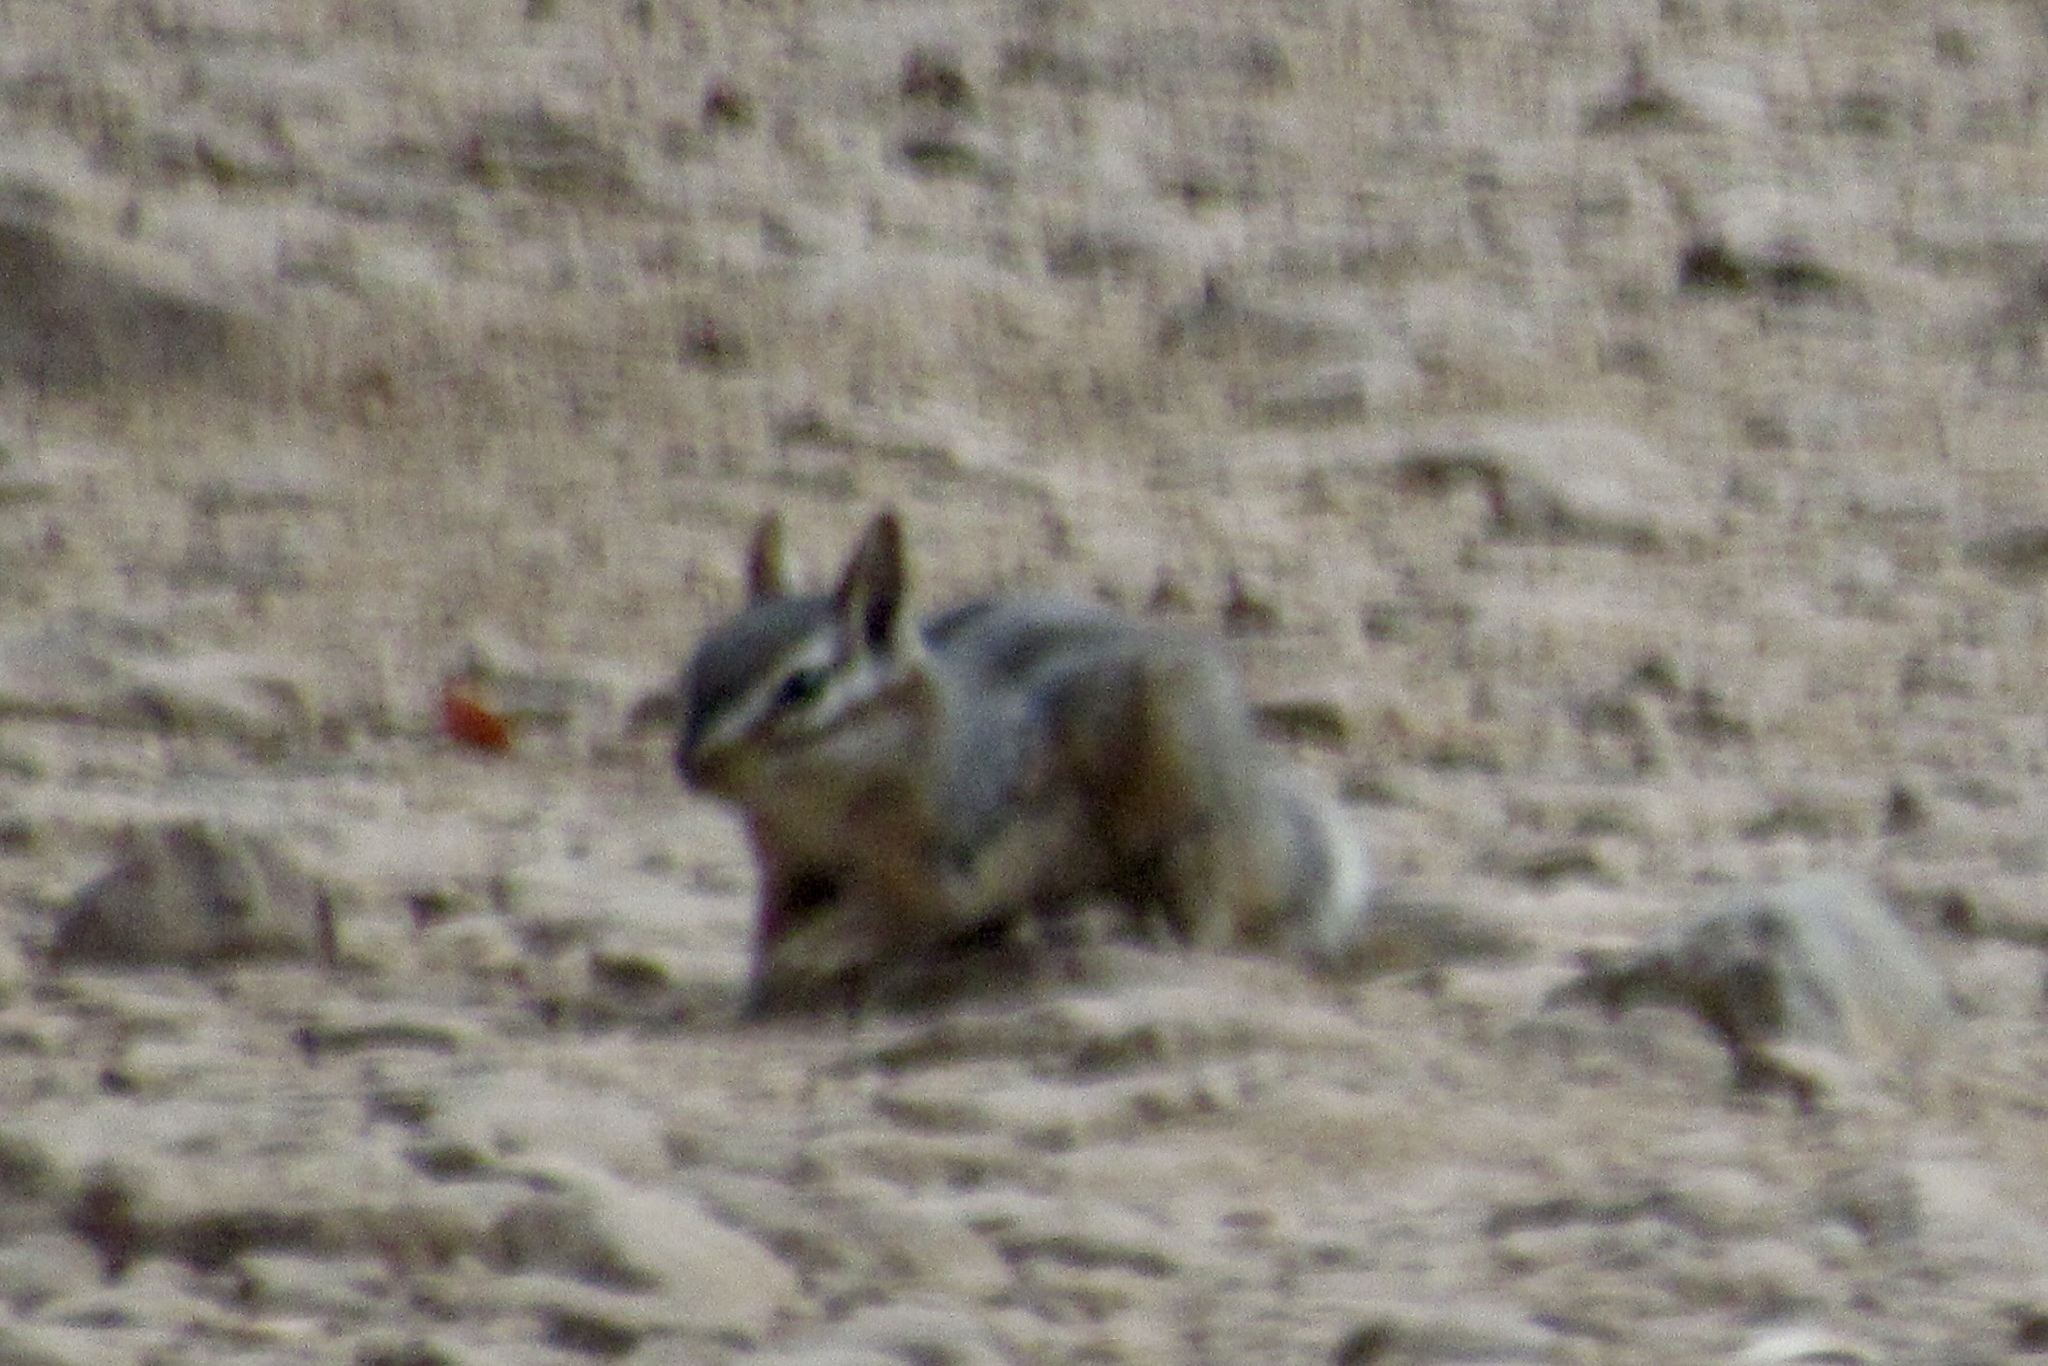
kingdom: Animalia
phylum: Chordata
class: Mammalia
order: Rodentia
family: Sciuridae
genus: Tamias
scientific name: Tamias dorsalis
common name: Cliff chipmunk
